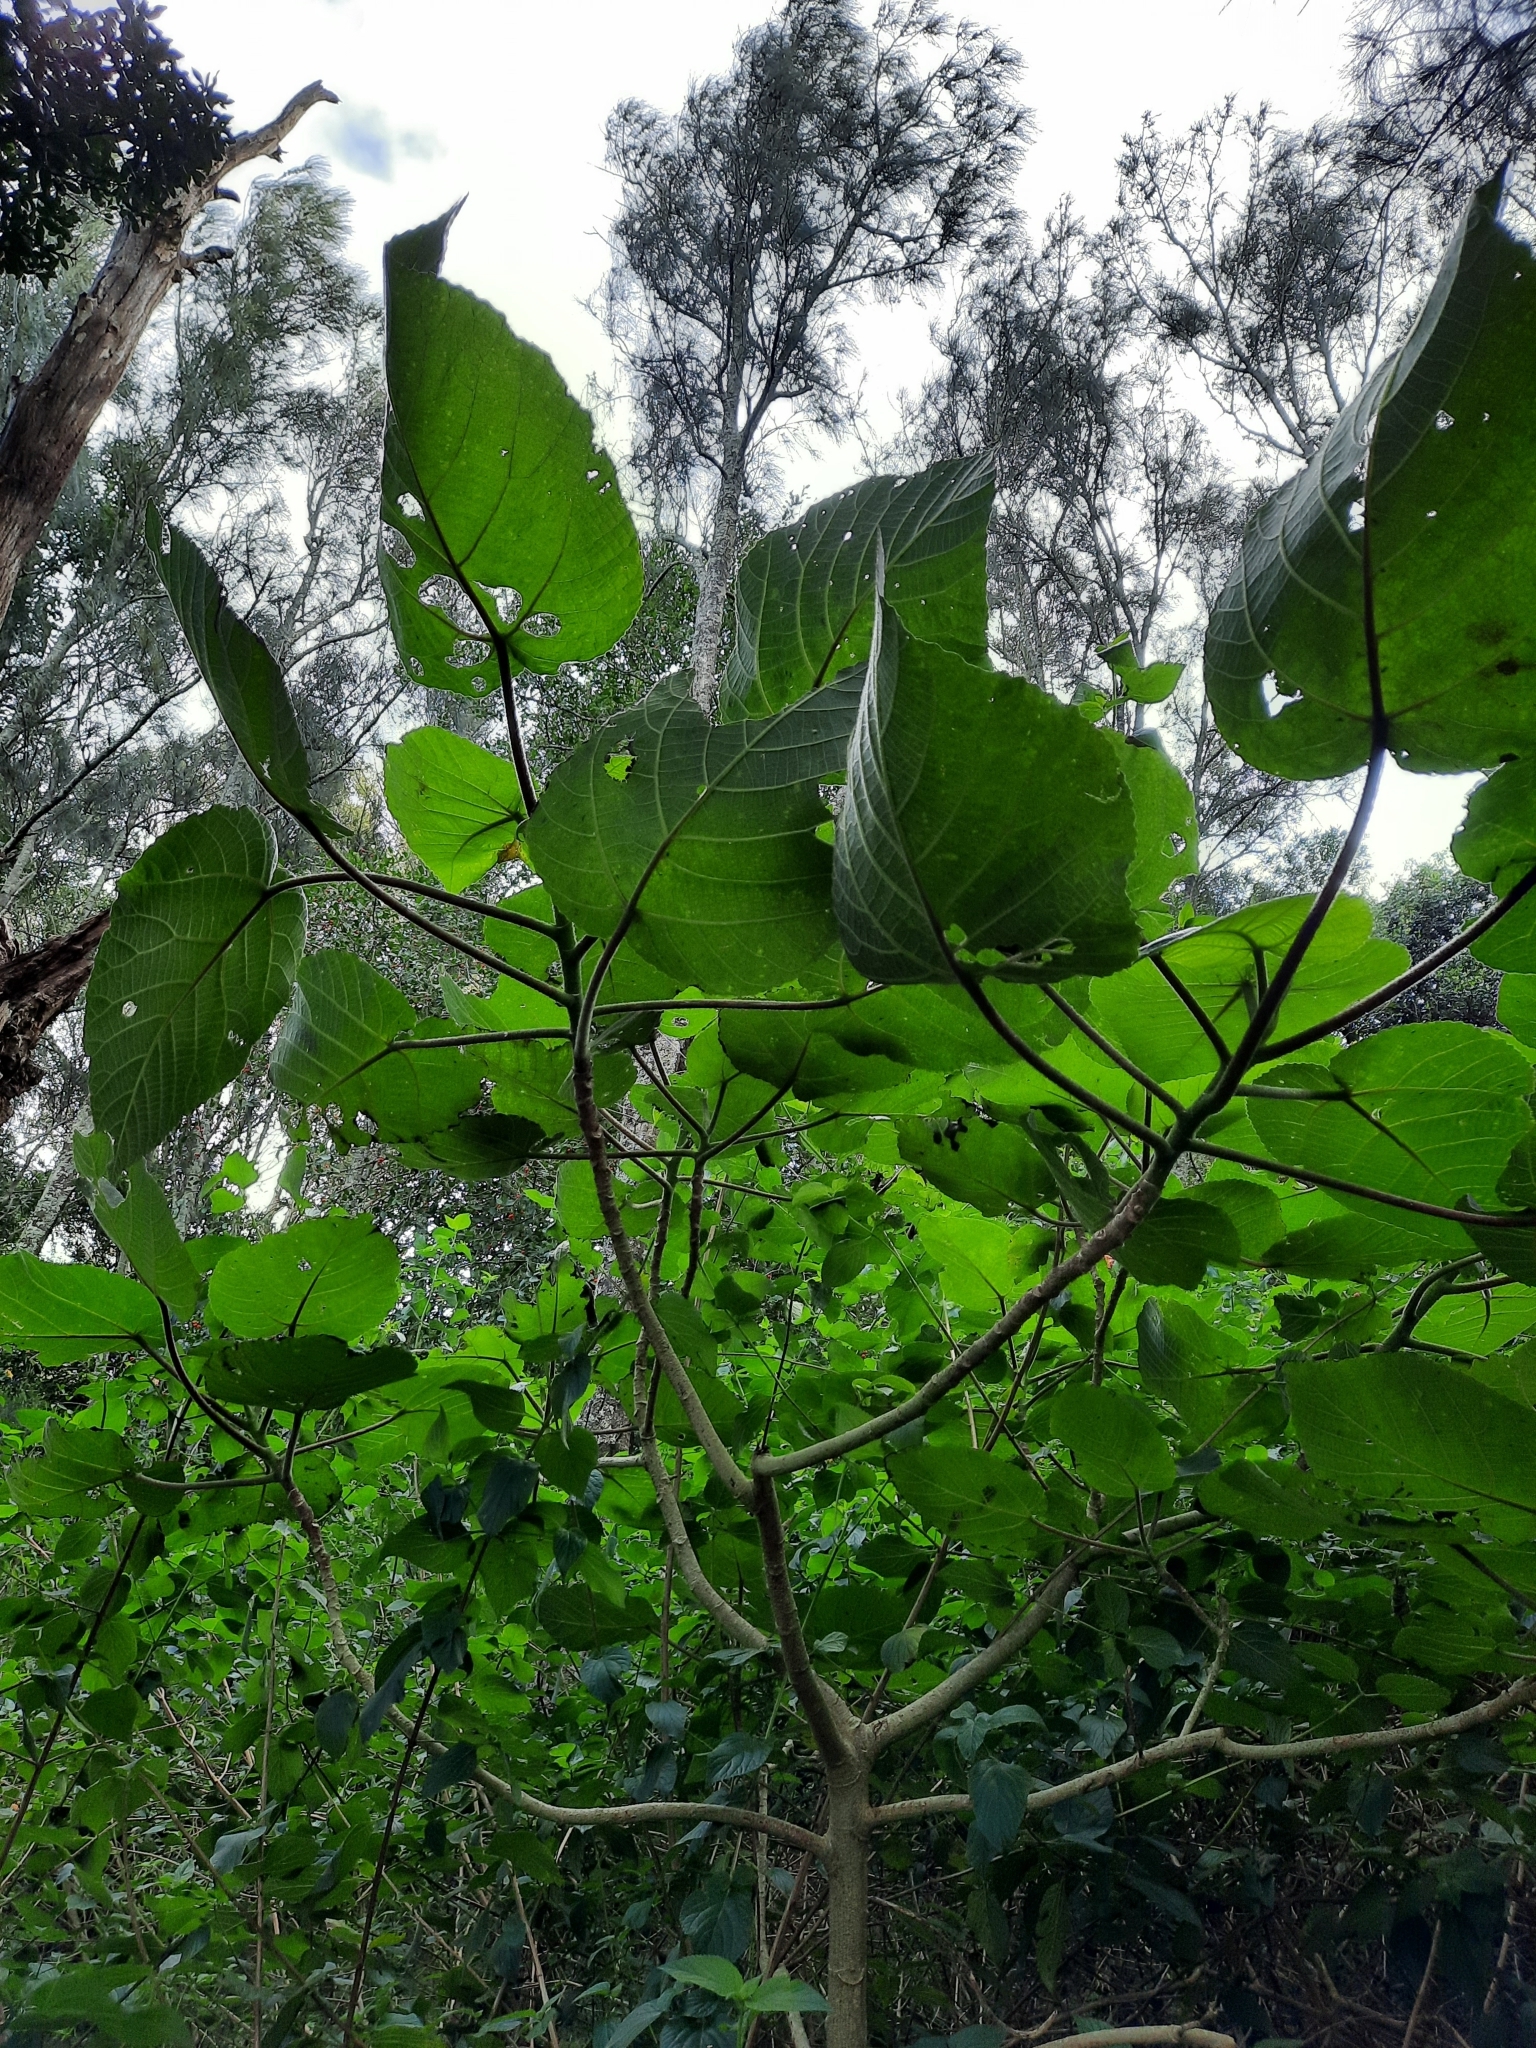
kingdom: Plantae
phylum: Tracheophyta
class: Magnoliopsida
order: Rosales
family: Urticaceae
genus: Dendrocnide
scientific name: Dendrocnide excelsa
